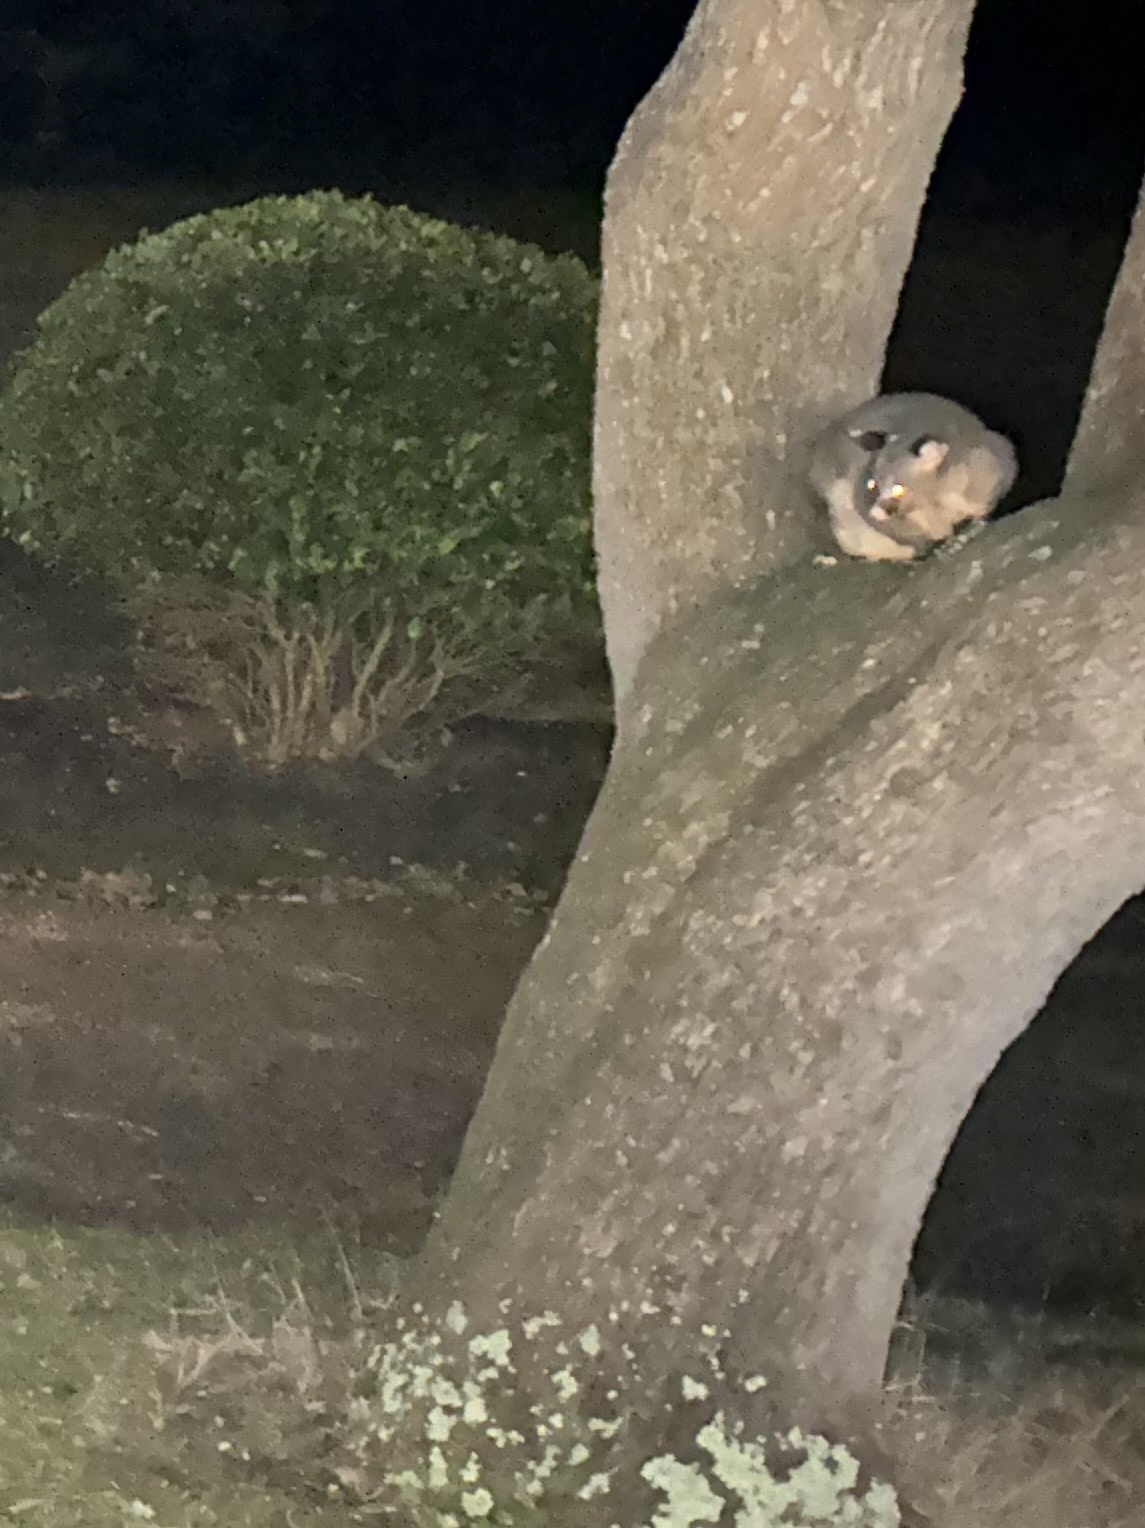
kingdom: Animalia
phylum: Chordata
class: Mammalia
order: Diprotodontia
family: Phalangeridae
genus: Trichosurus
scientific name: Trichosurus vulpecula
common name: Common brushtail
